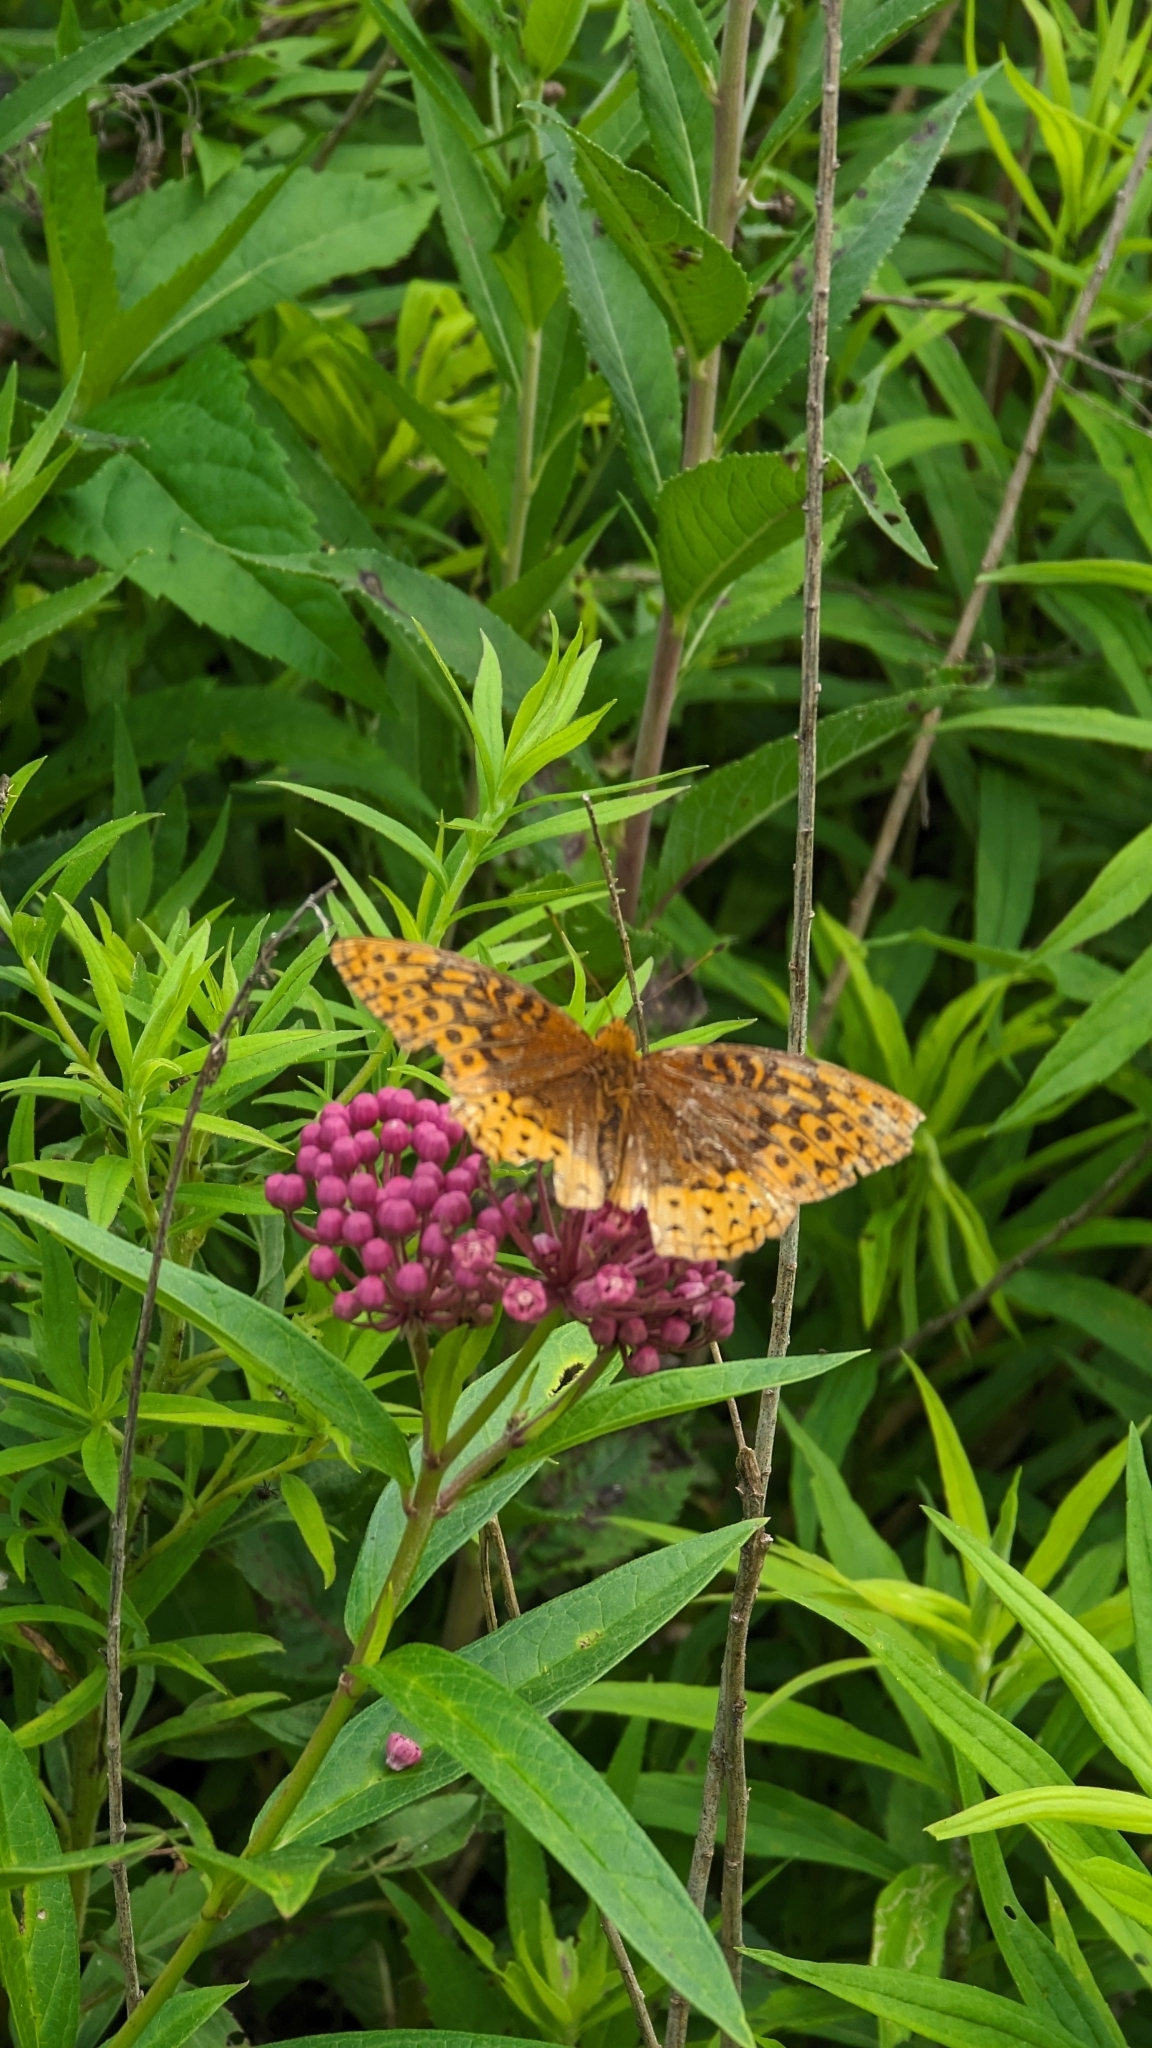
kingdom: Animalia
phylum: Arthropoda
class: Insecta
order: Lepidoptera
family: Nymphalidae
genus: Speyeria
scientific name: Speyeria cybele
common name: Great spangled fritillary
